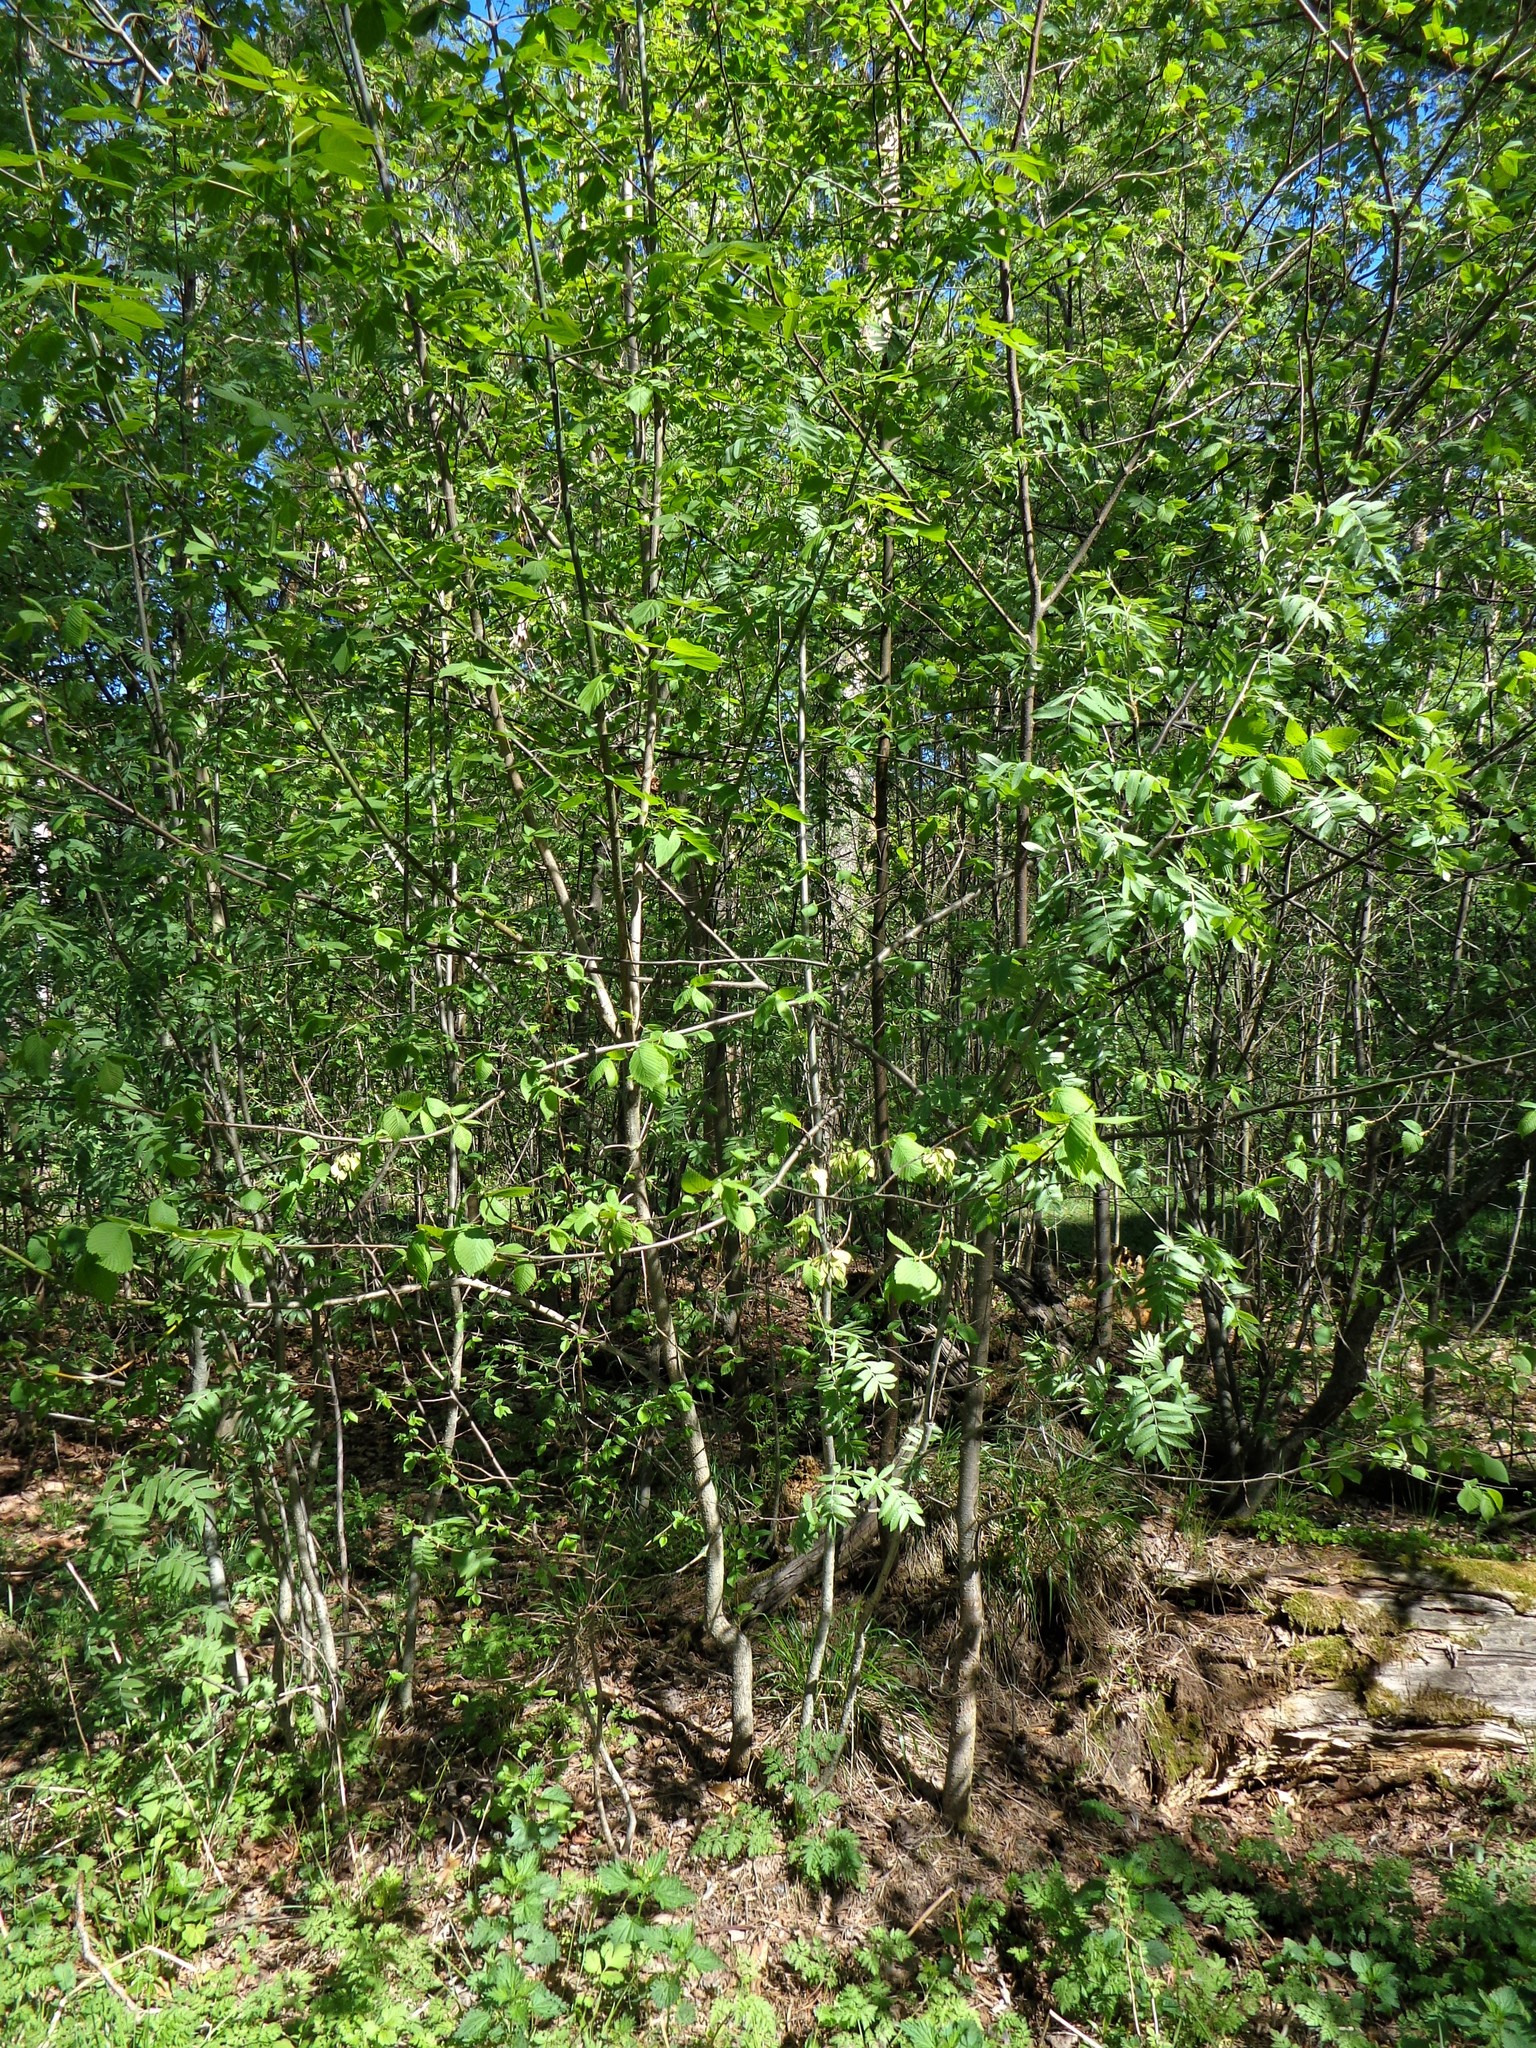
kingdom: Plantae
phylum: Tracheophyta
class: Magnoliopsida
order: Rosales
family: Ulmaceae
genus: Ulmus
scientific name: Ulmus laevis
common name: European white-elm
